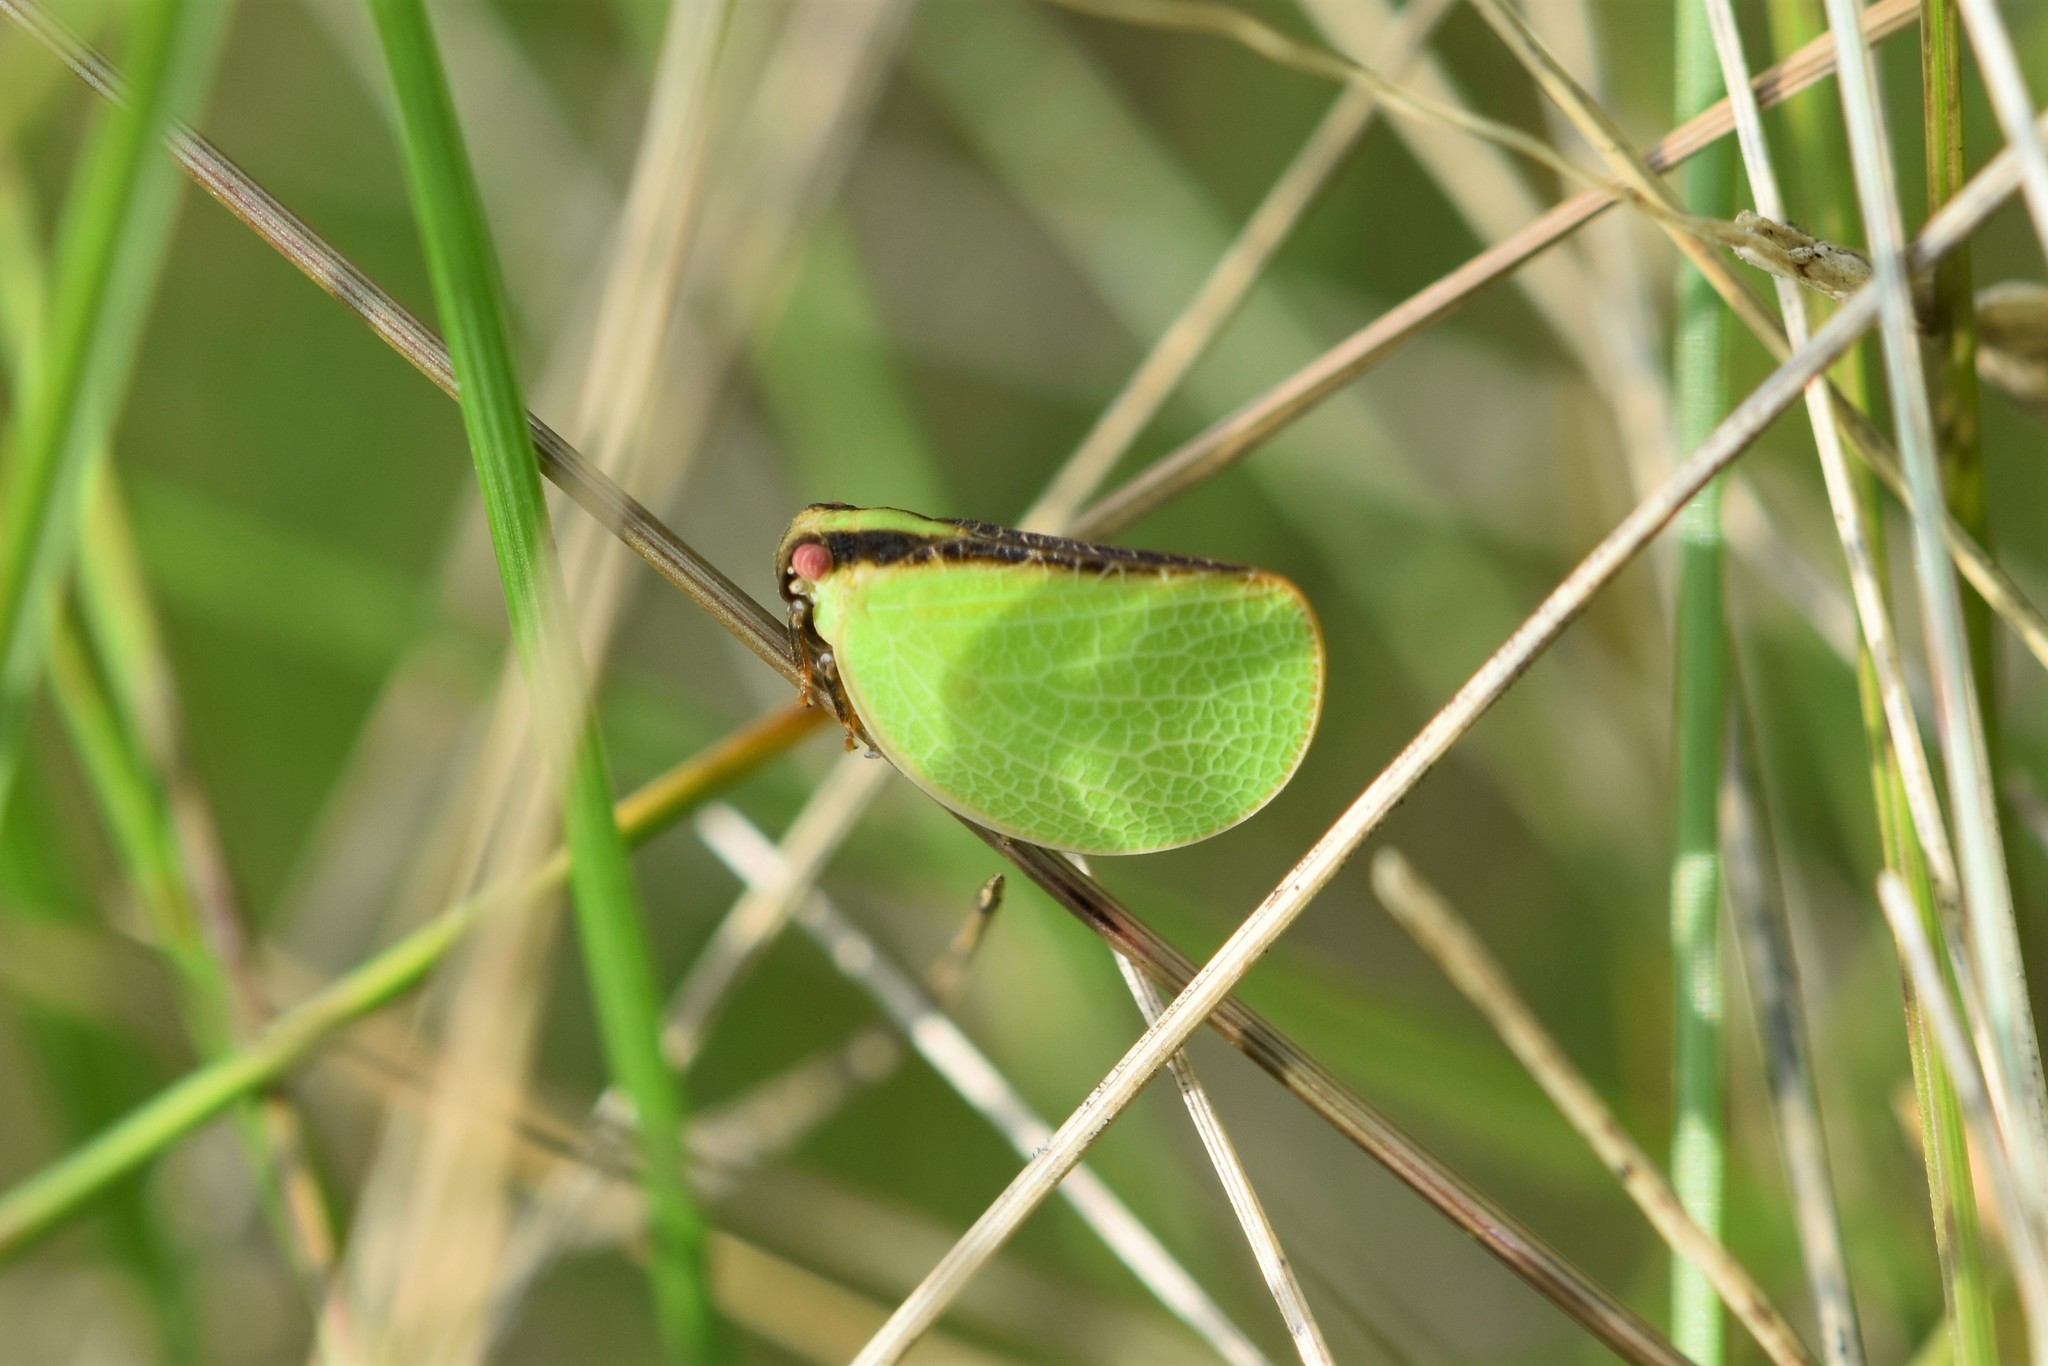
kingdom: Animalia
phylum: Arthropoda
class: Insecta
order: Hemiptera
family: Acanaloniidae
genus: Acanalonia
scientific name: Acanalonia bivittata
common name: Two-striped planthopper
